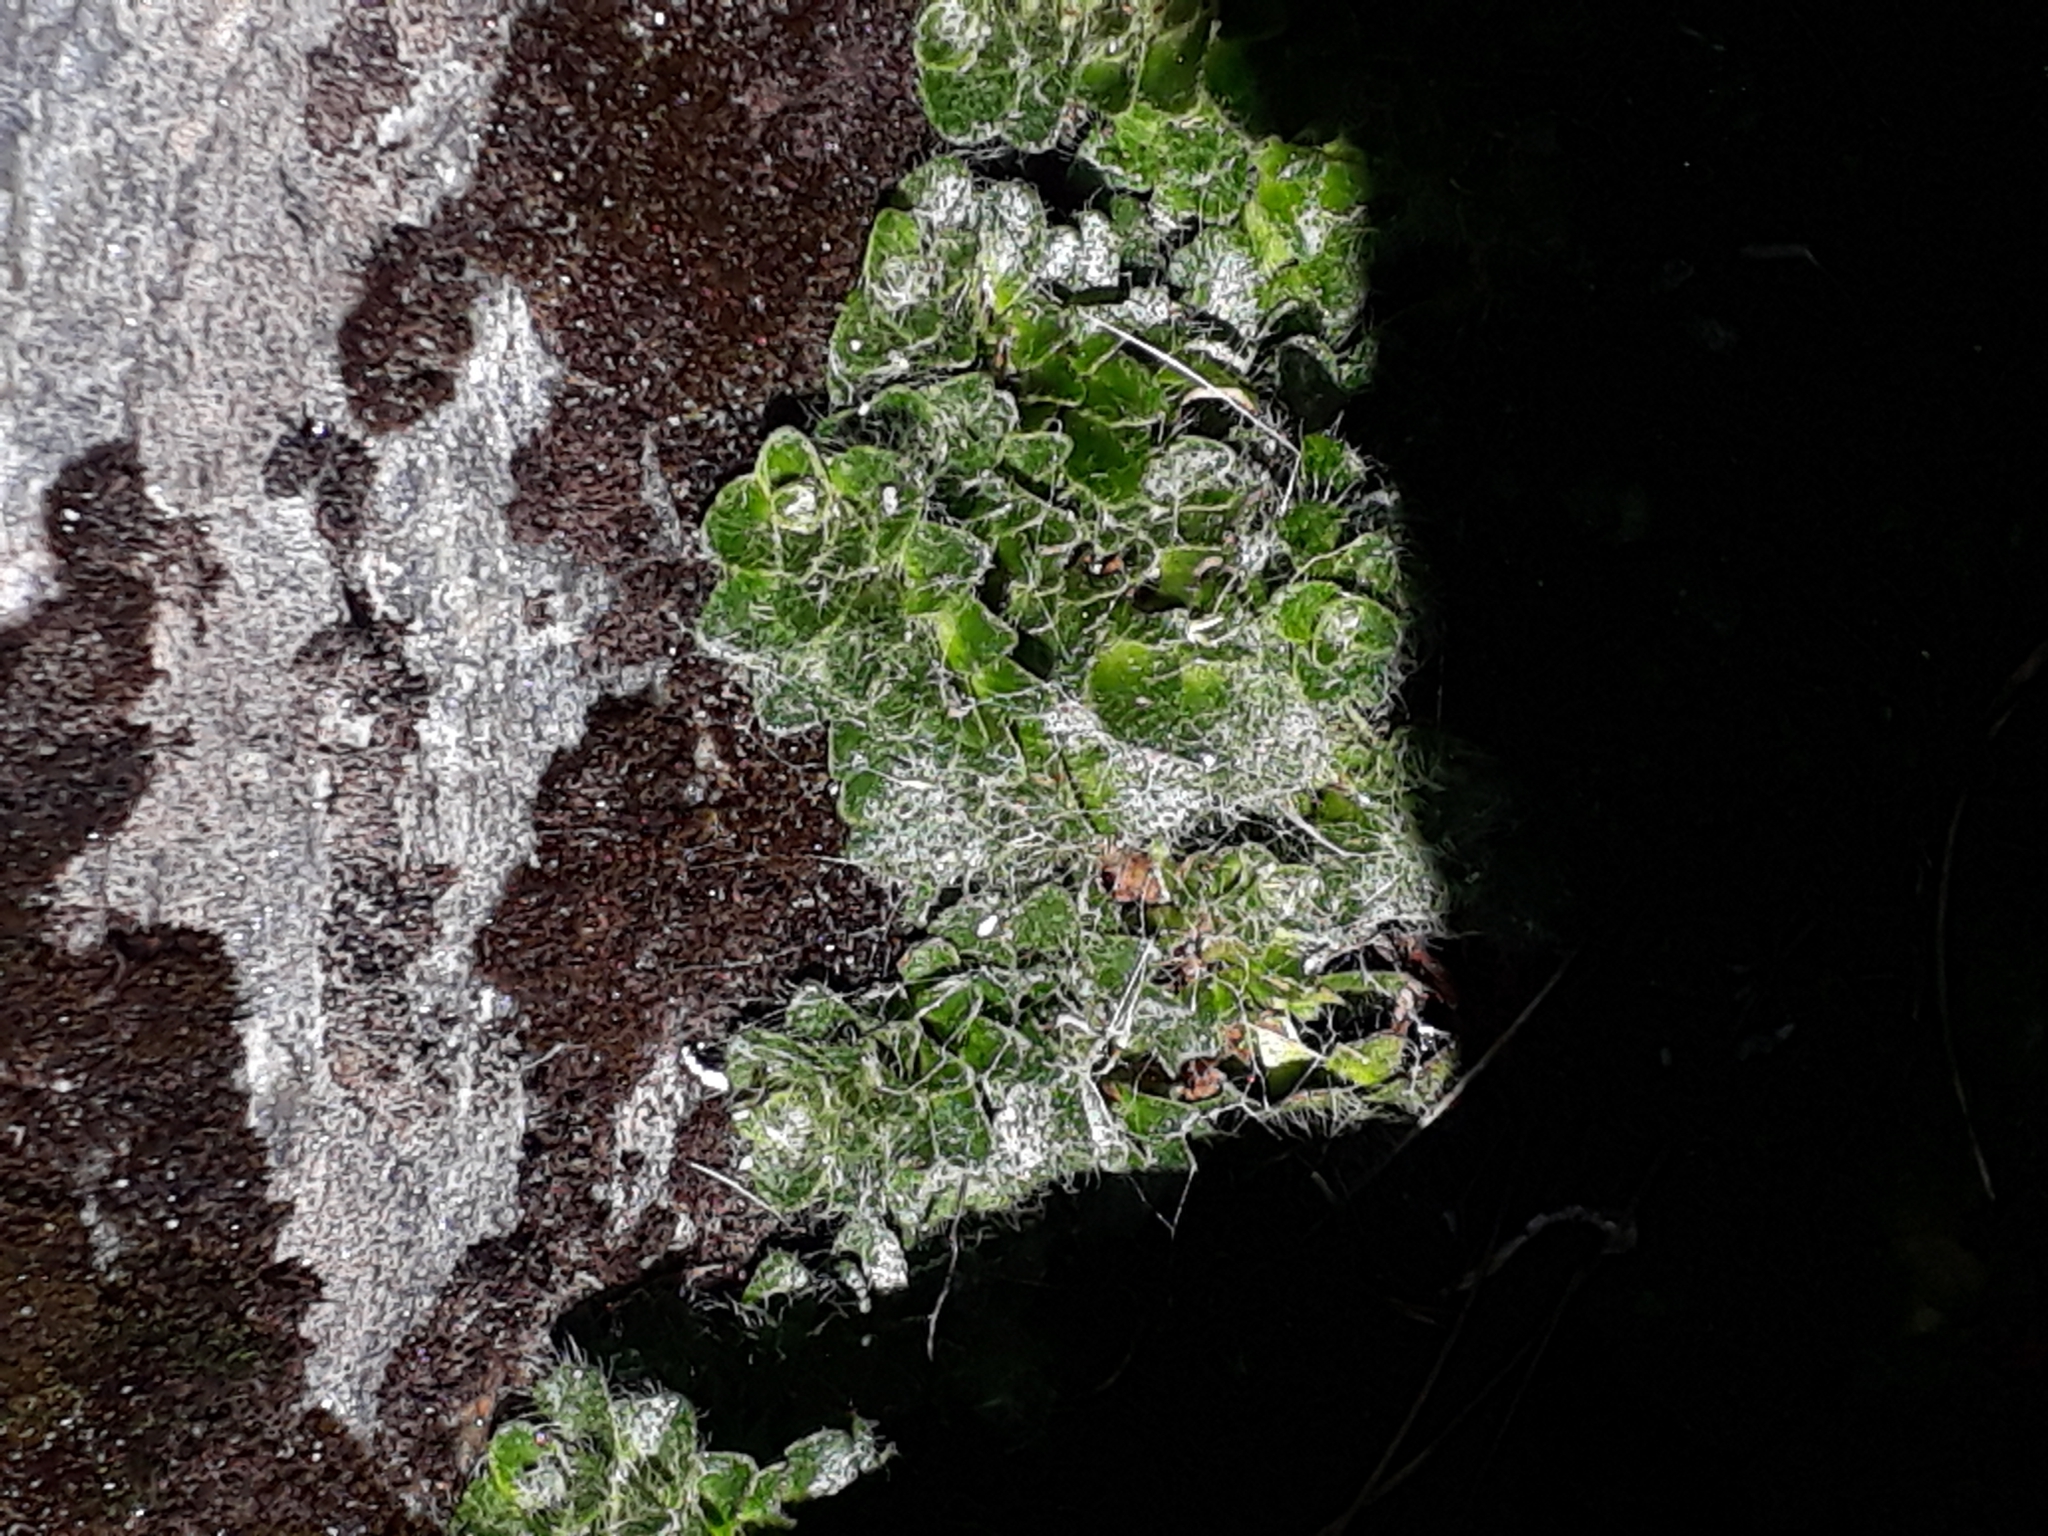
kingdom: Plantae
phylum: Tracheophyta
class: Magnoliopsida
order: Lamiales
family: Plantaginaceae
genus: Ourisia
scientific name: Ourisia glandulosa
